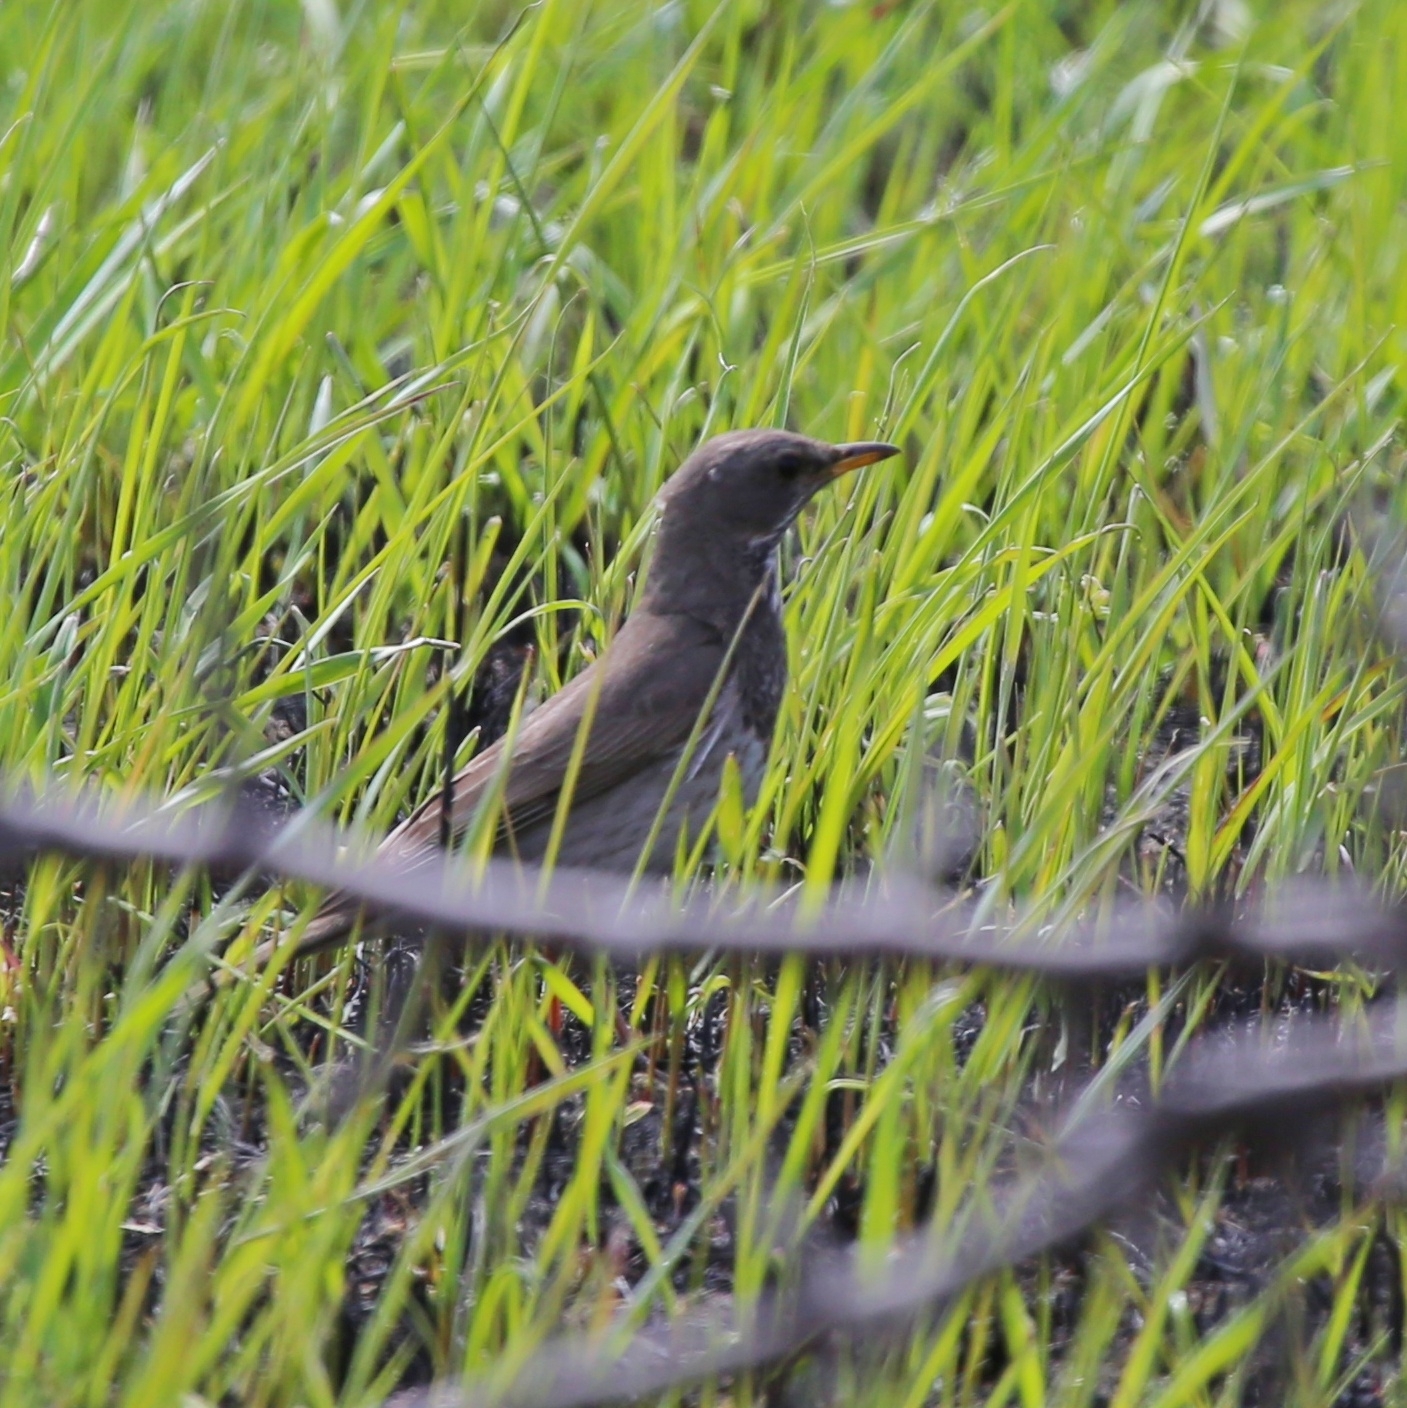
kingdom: Animalia
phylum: Chordata
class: Aves
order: Passeriformes
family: Turdidae
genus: Turdus
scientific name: Turdus atrogularis
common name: Black-throated thrush
